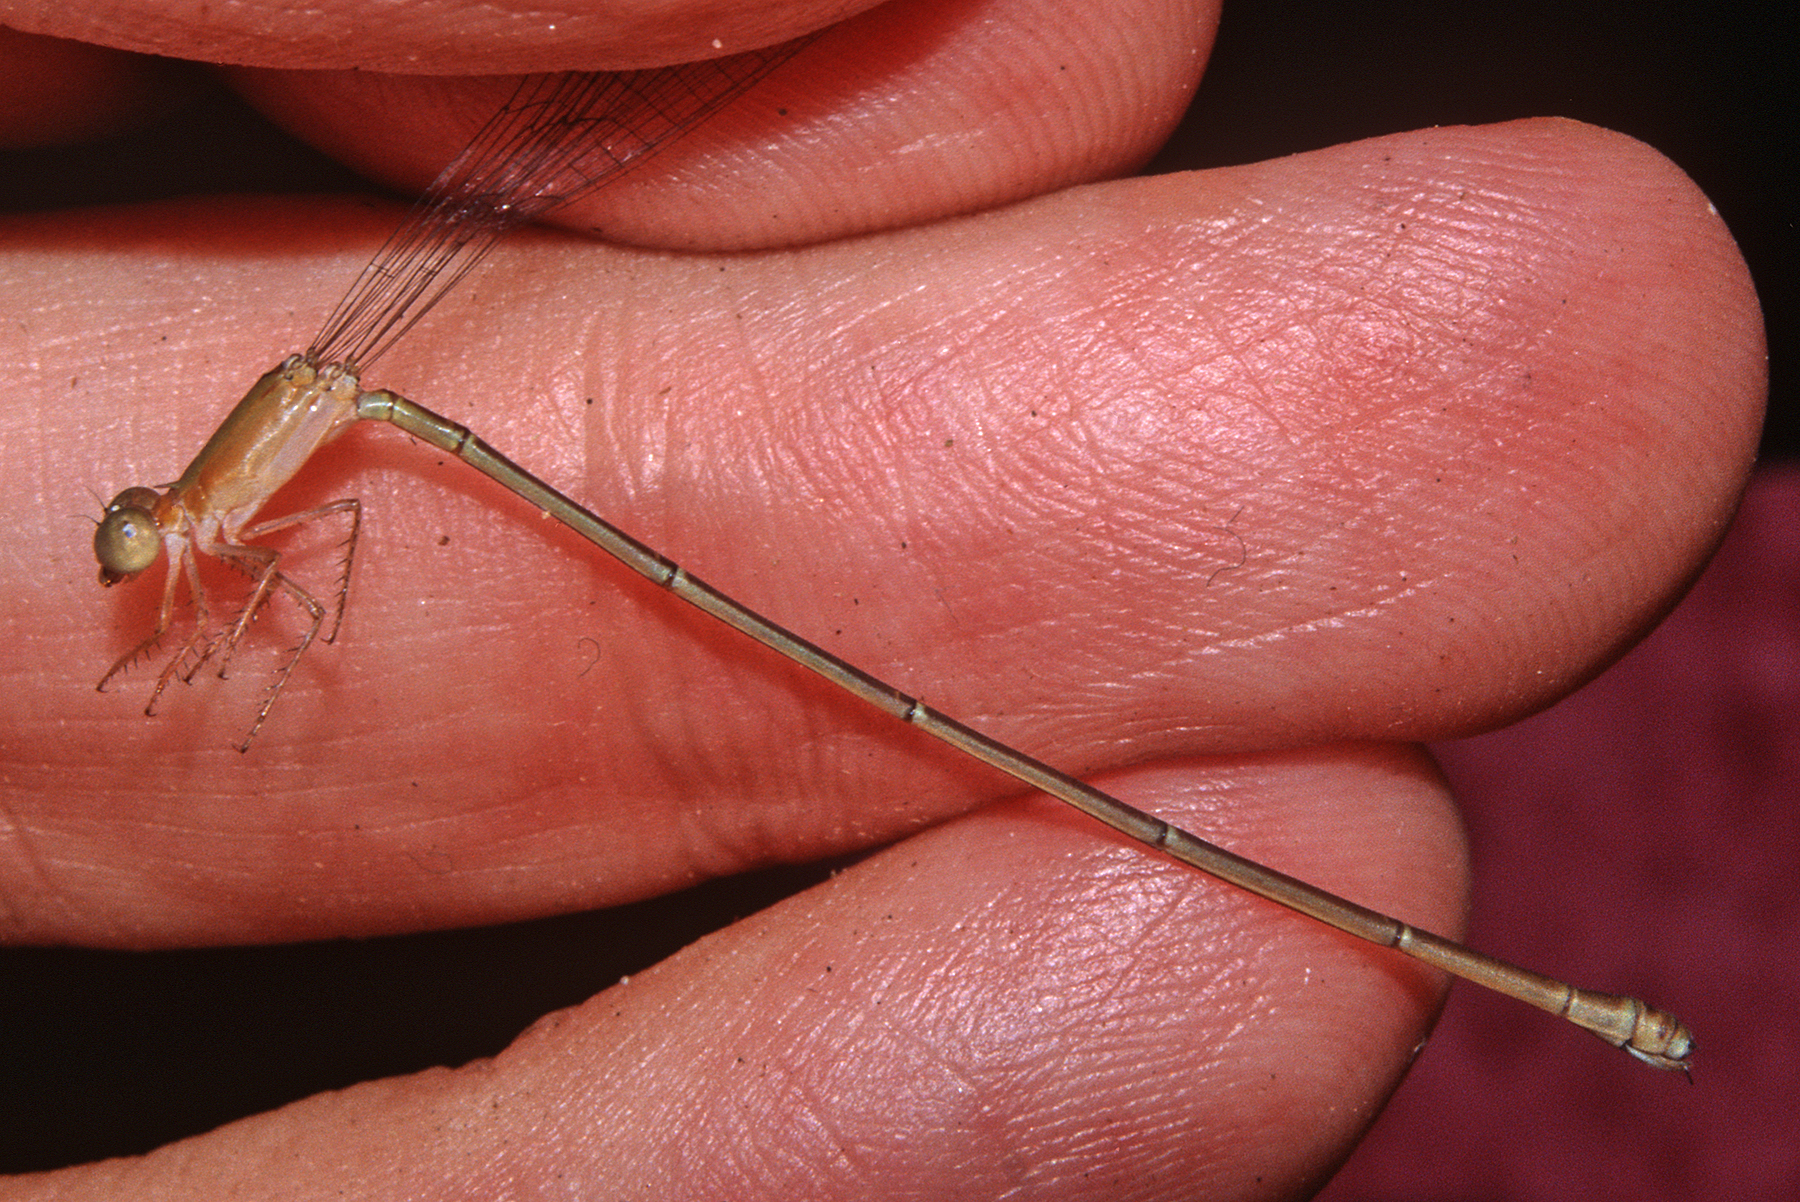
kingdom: Animalia
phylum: Arthropoda
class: Insecta
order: Odonata
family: Coenagrionidae
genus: Metaleptobasis
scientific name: Metaleptobasis silvicola
